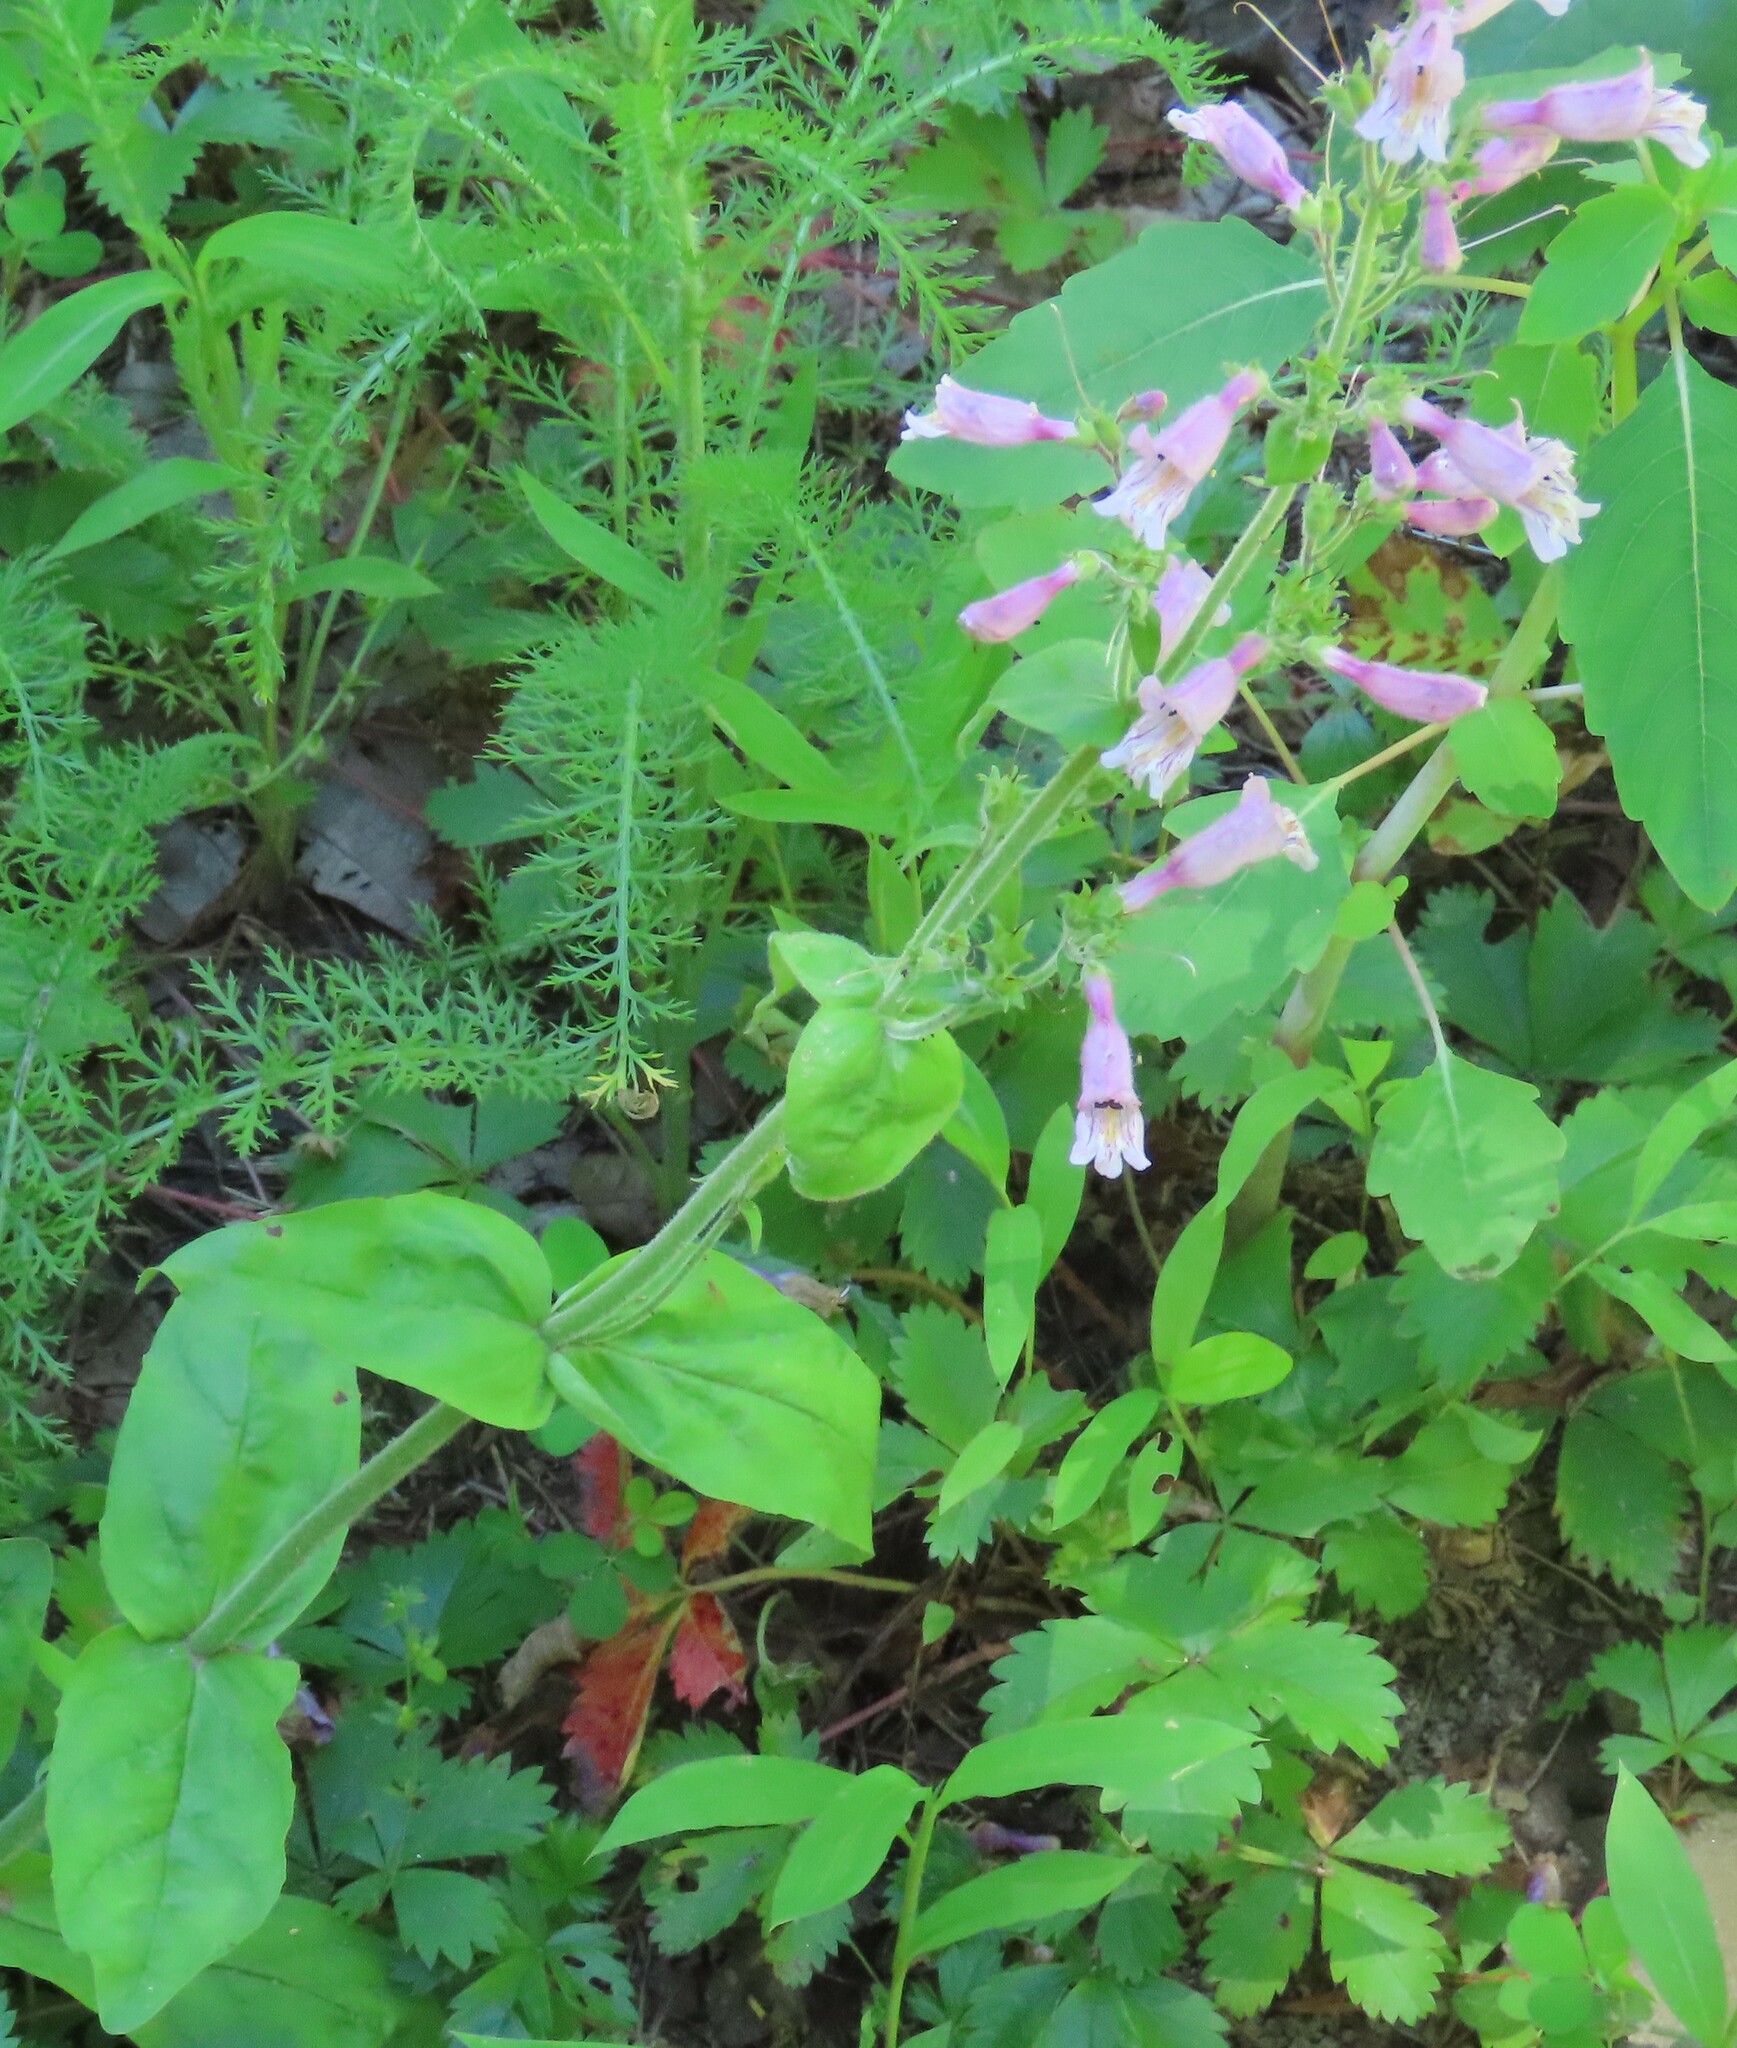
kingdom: Plantae
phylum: Tracheophyta
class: Magnoliopsida
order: Lamiales
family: Plantaginaceae
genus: Penstemon
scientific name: Penstemon canescens
